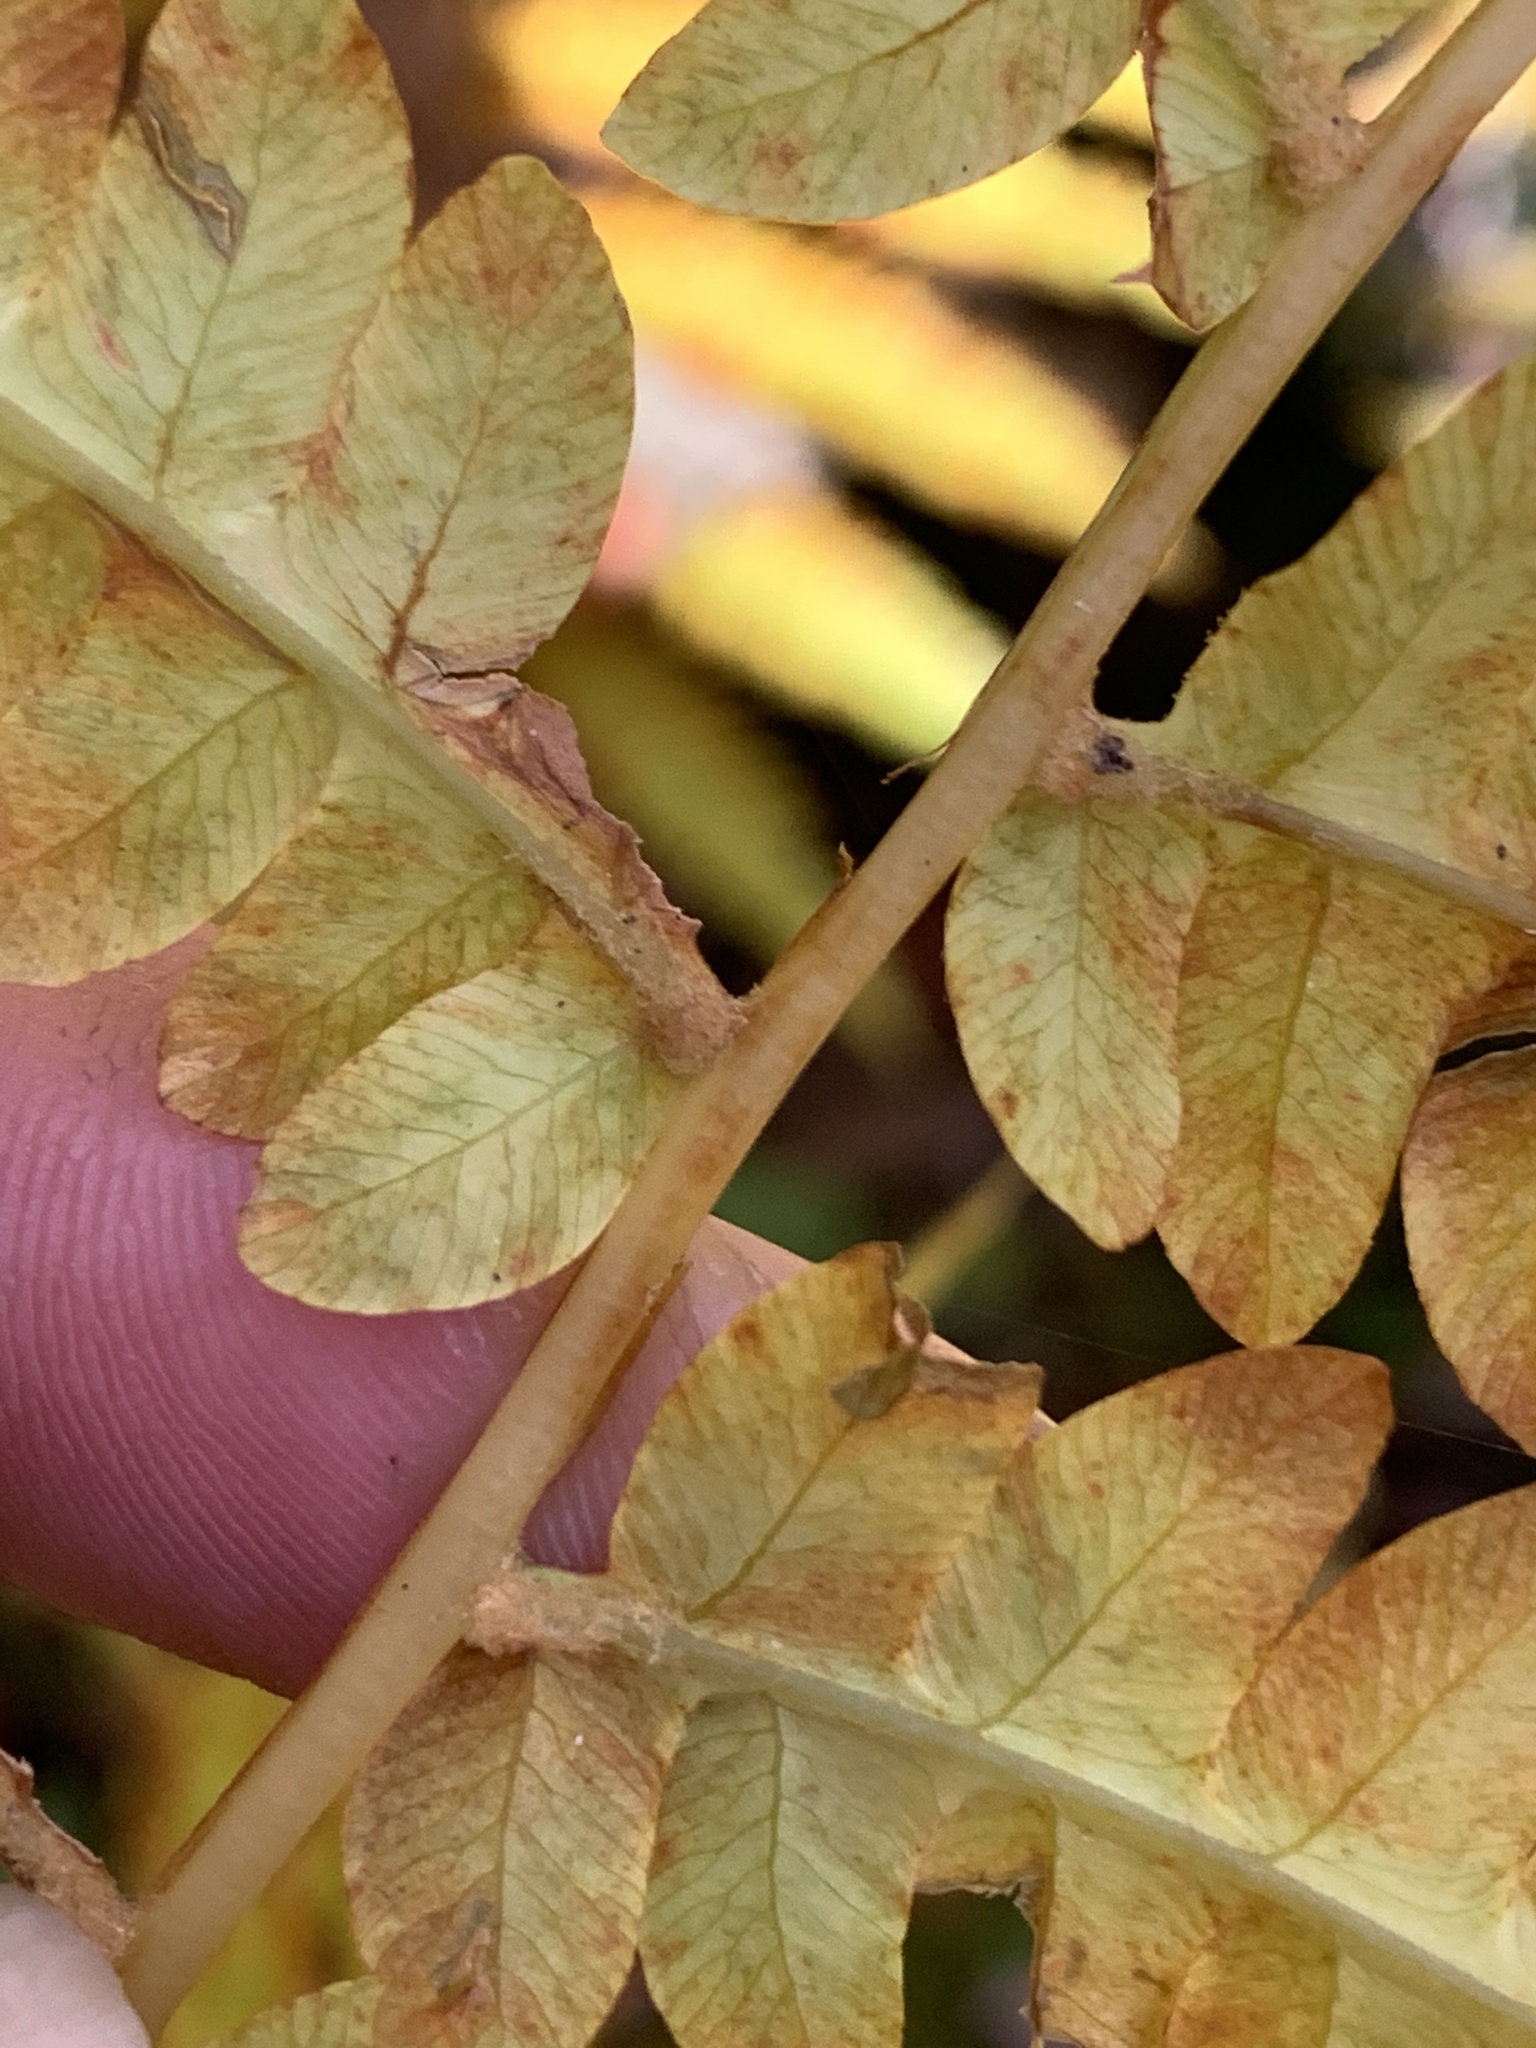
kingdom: Plantae
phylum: Tracheophyta
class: Polypodiopsida
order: Osmundales
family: Osmundaceae
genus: Osmundastrum
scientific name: Osmundastrum cinnamomeum
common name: Cinnamon fern
